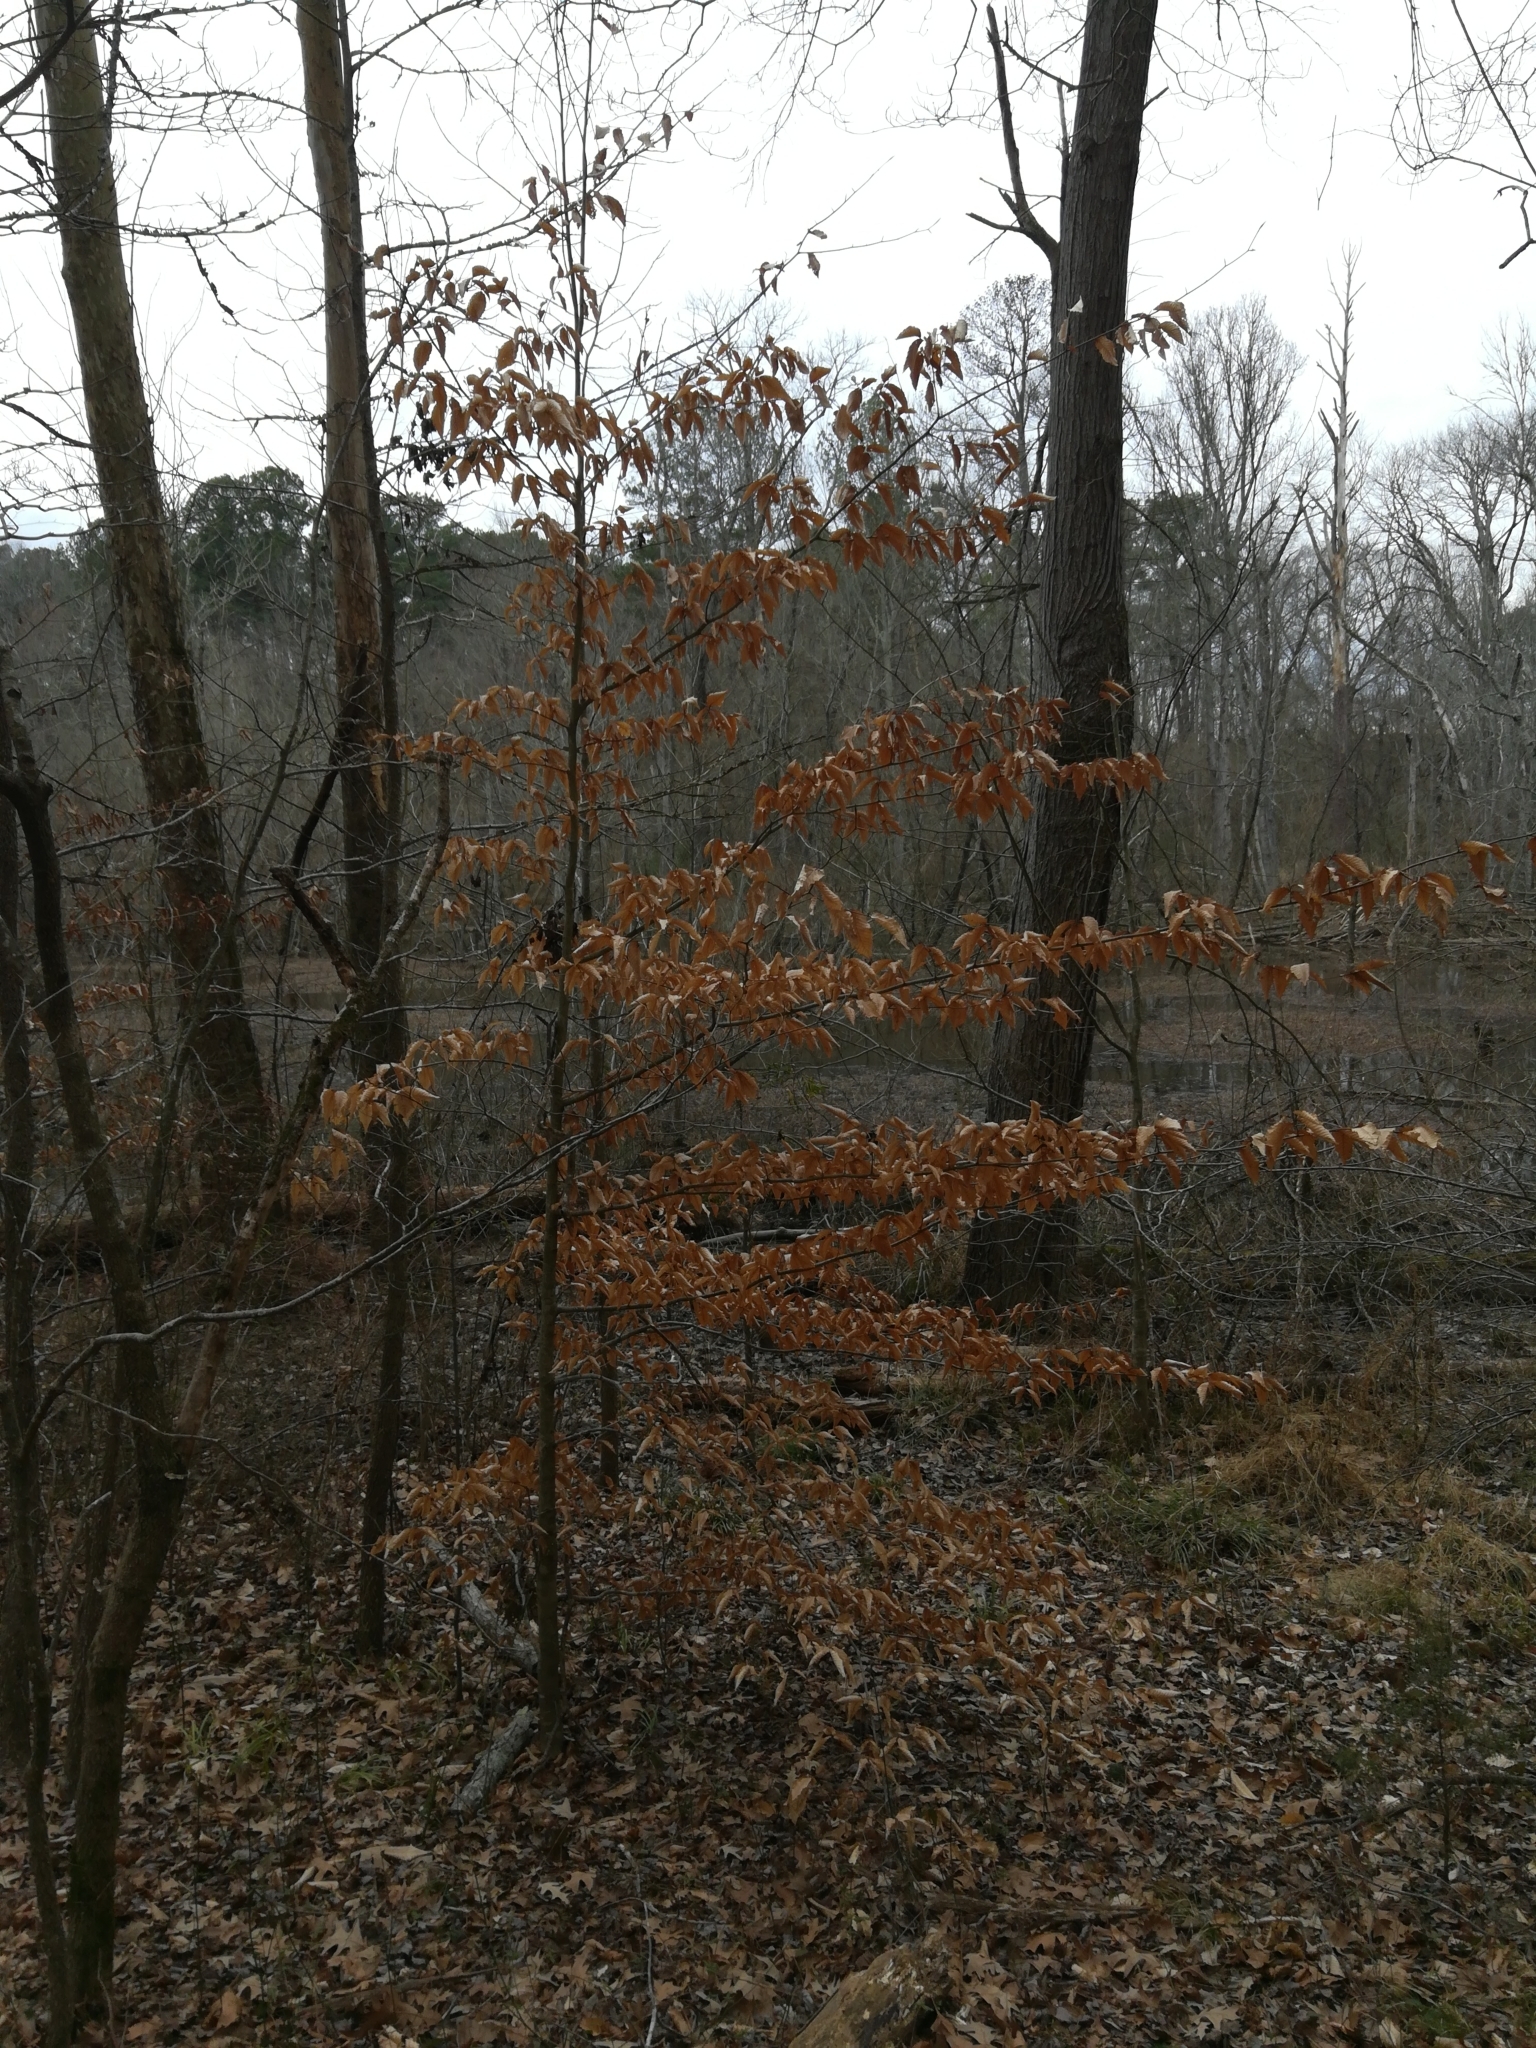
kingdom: Plantae
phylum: Tracheophyta
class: Magnoliopsida
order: Fagales
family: Fagaceae
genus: Fagus
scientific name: Fagus grandifolia
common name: American beech
